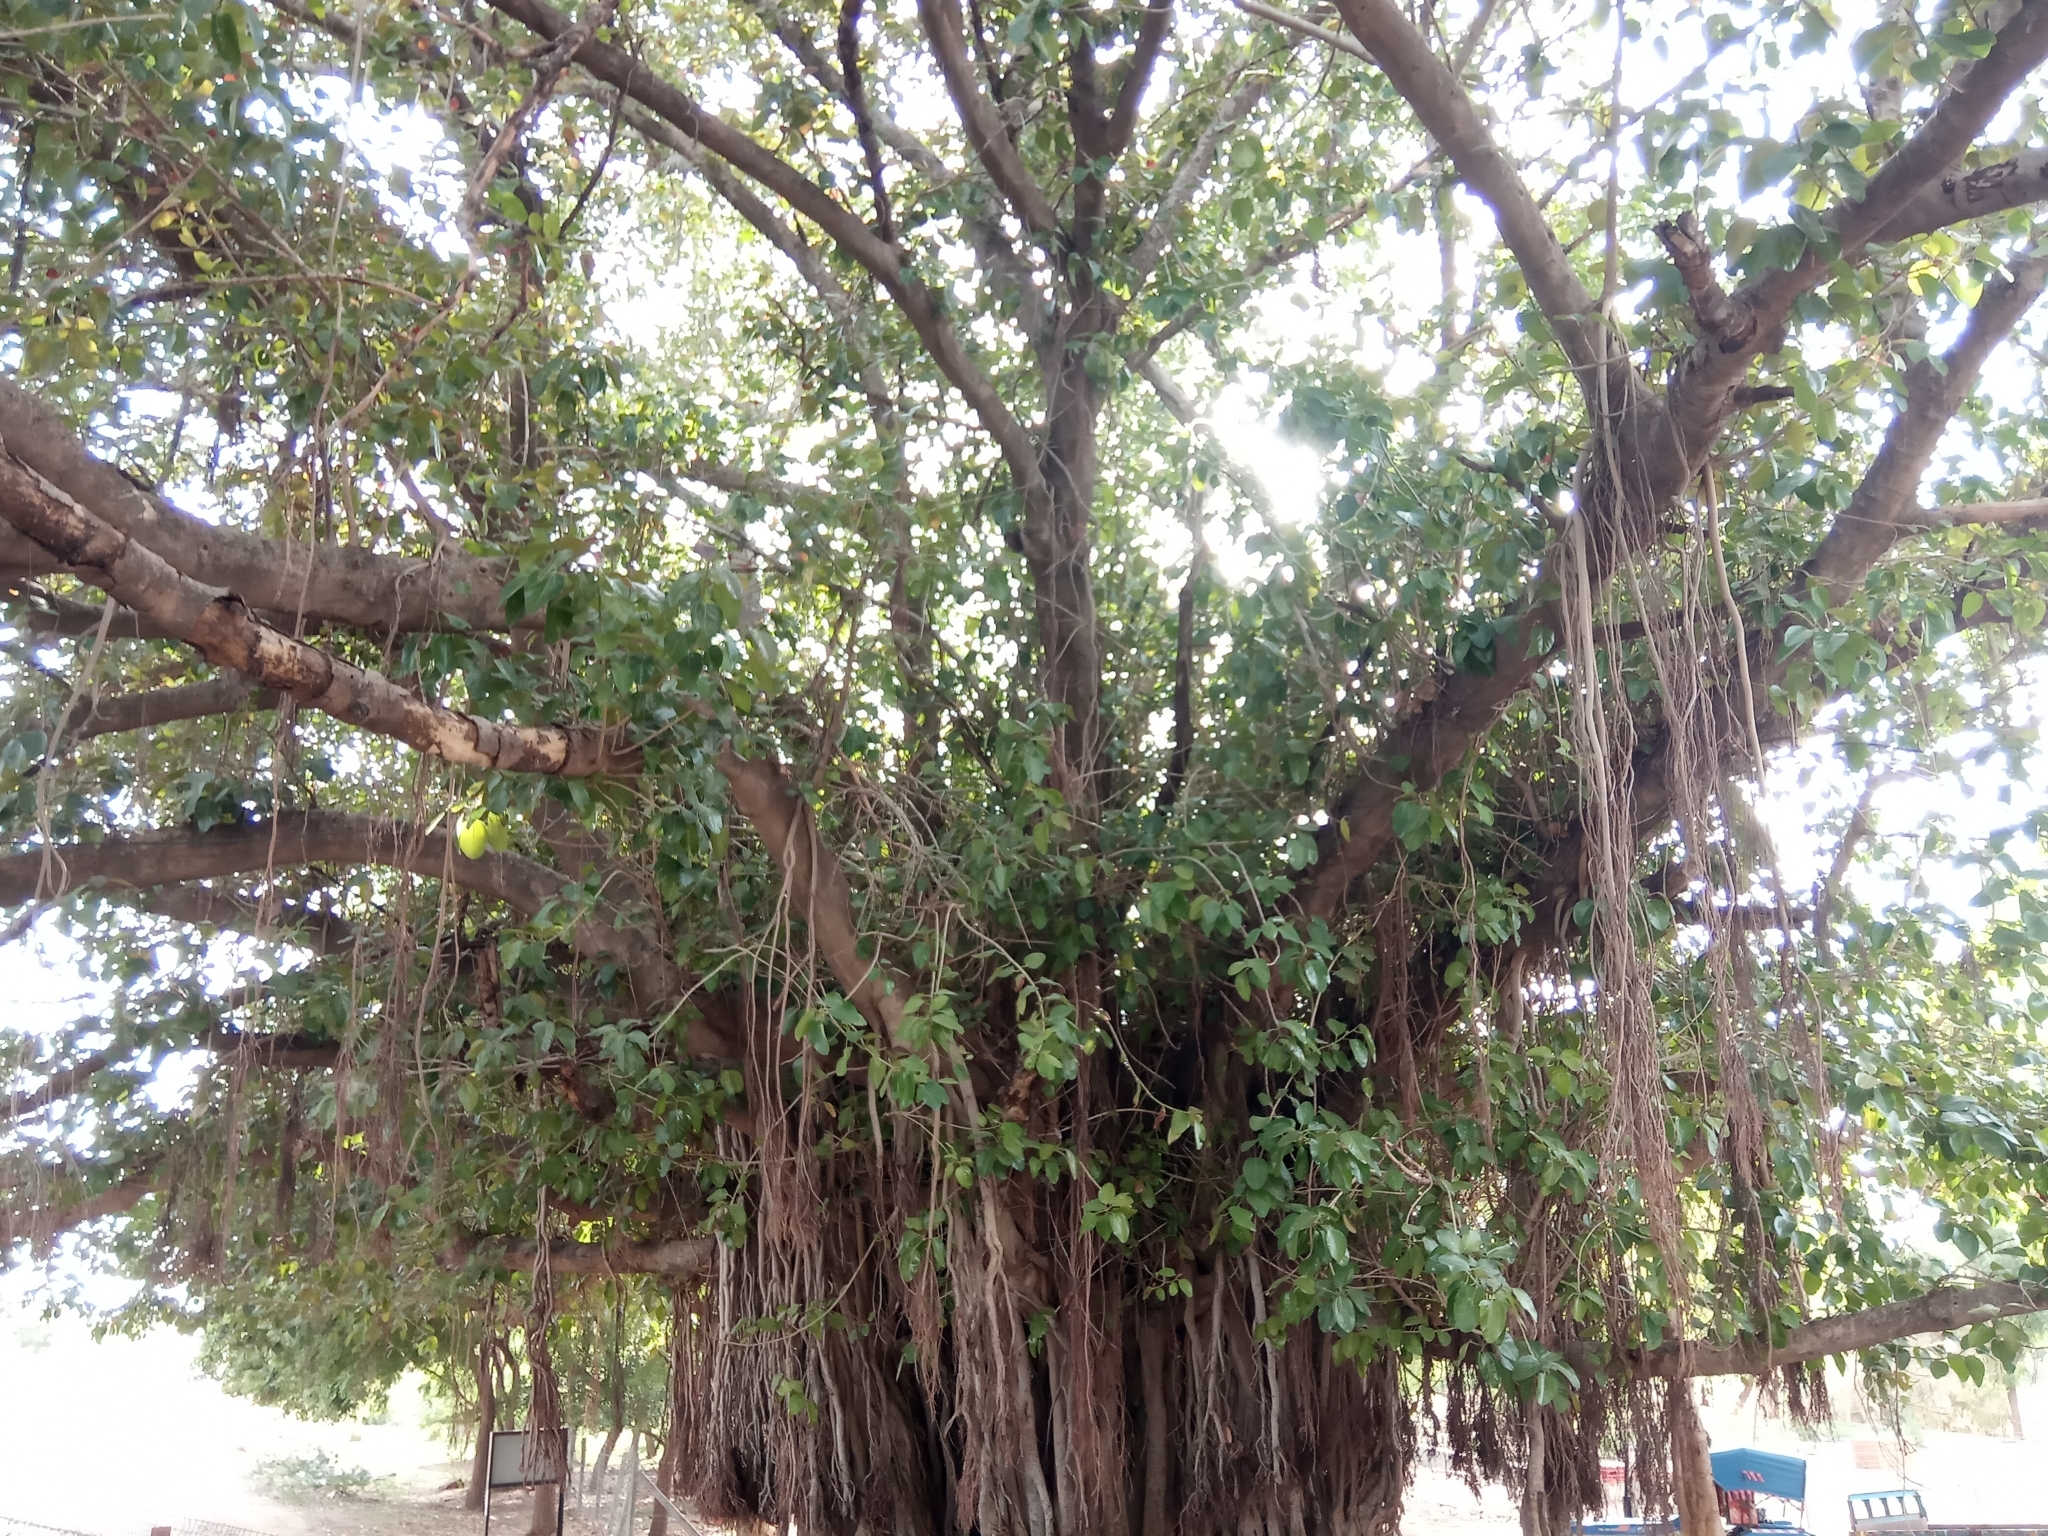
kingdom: Plantae
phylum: Tracheophyta
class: Magnoliopsida
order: Rosales
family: Moraceae
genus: Ficus
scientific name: Ficus benghalensis
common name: Indian banyan
